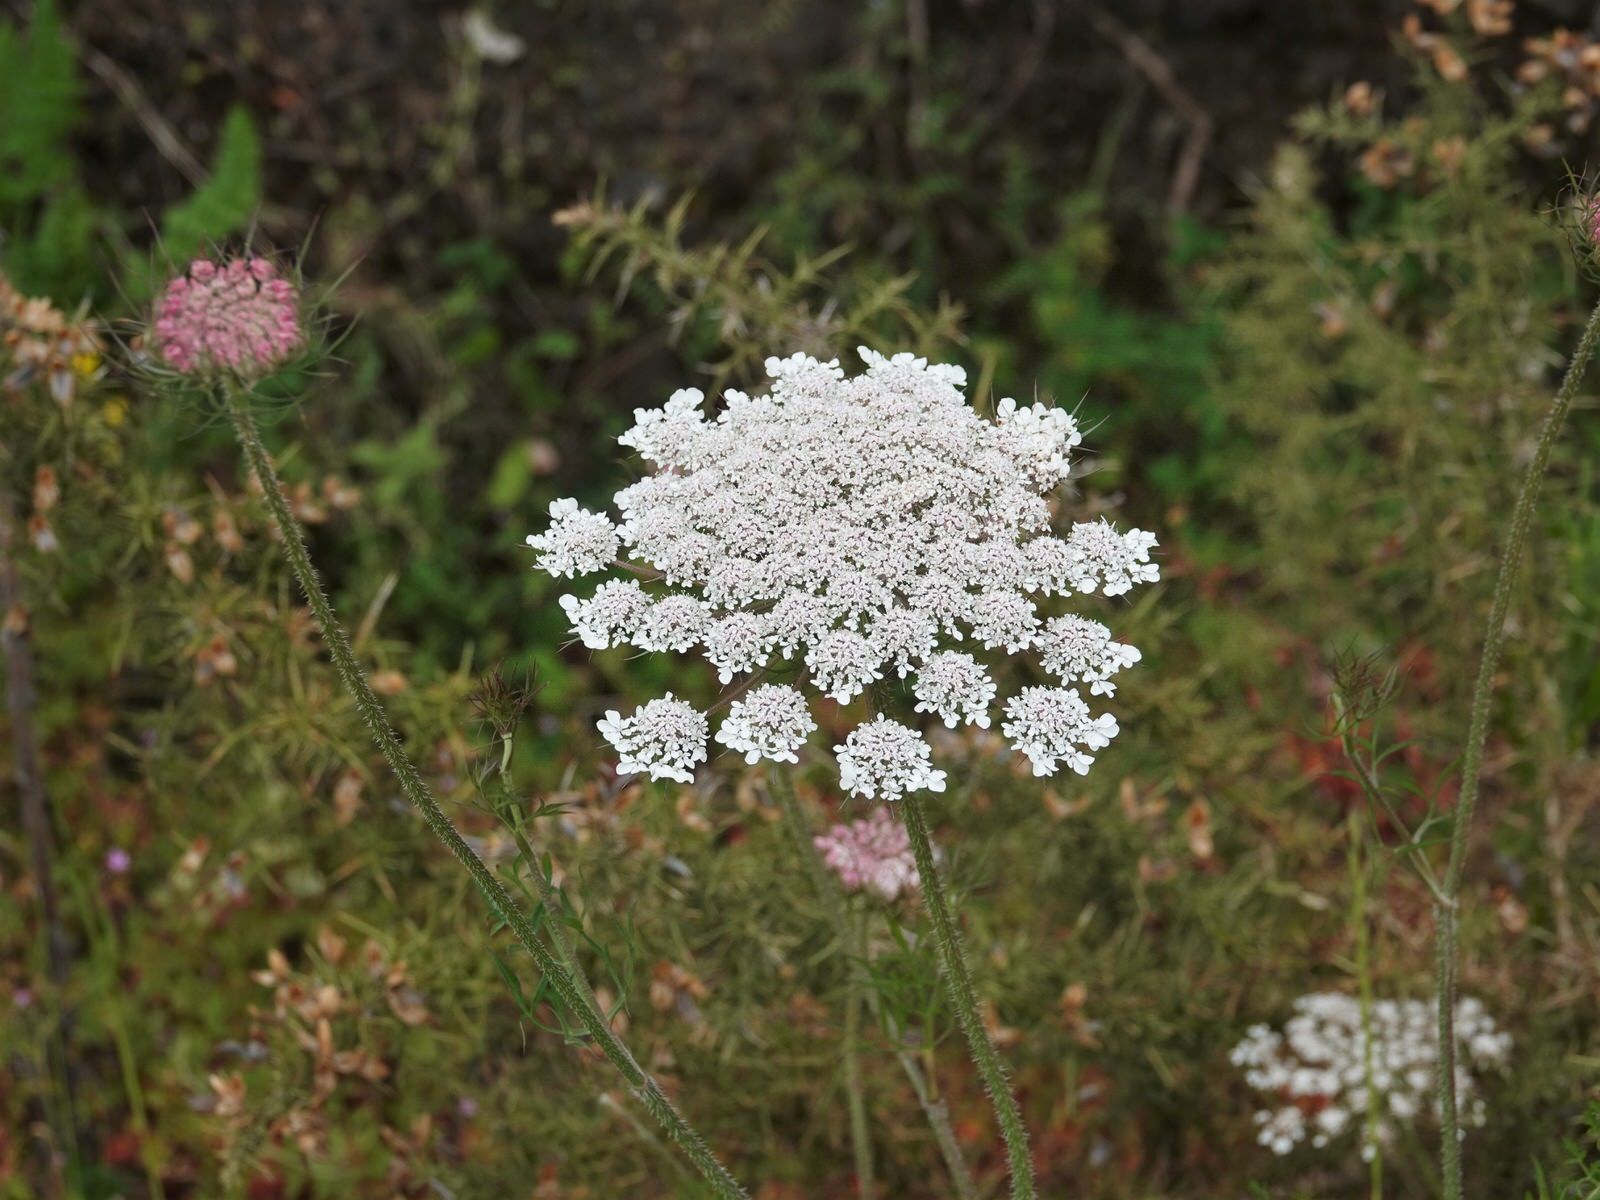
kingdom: Plantae
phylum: Tracheophyta
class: Magnoliopsida
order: Apiales
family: Apiaceae
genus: Daucus
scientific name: Daucus carota
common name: Wild carrot
